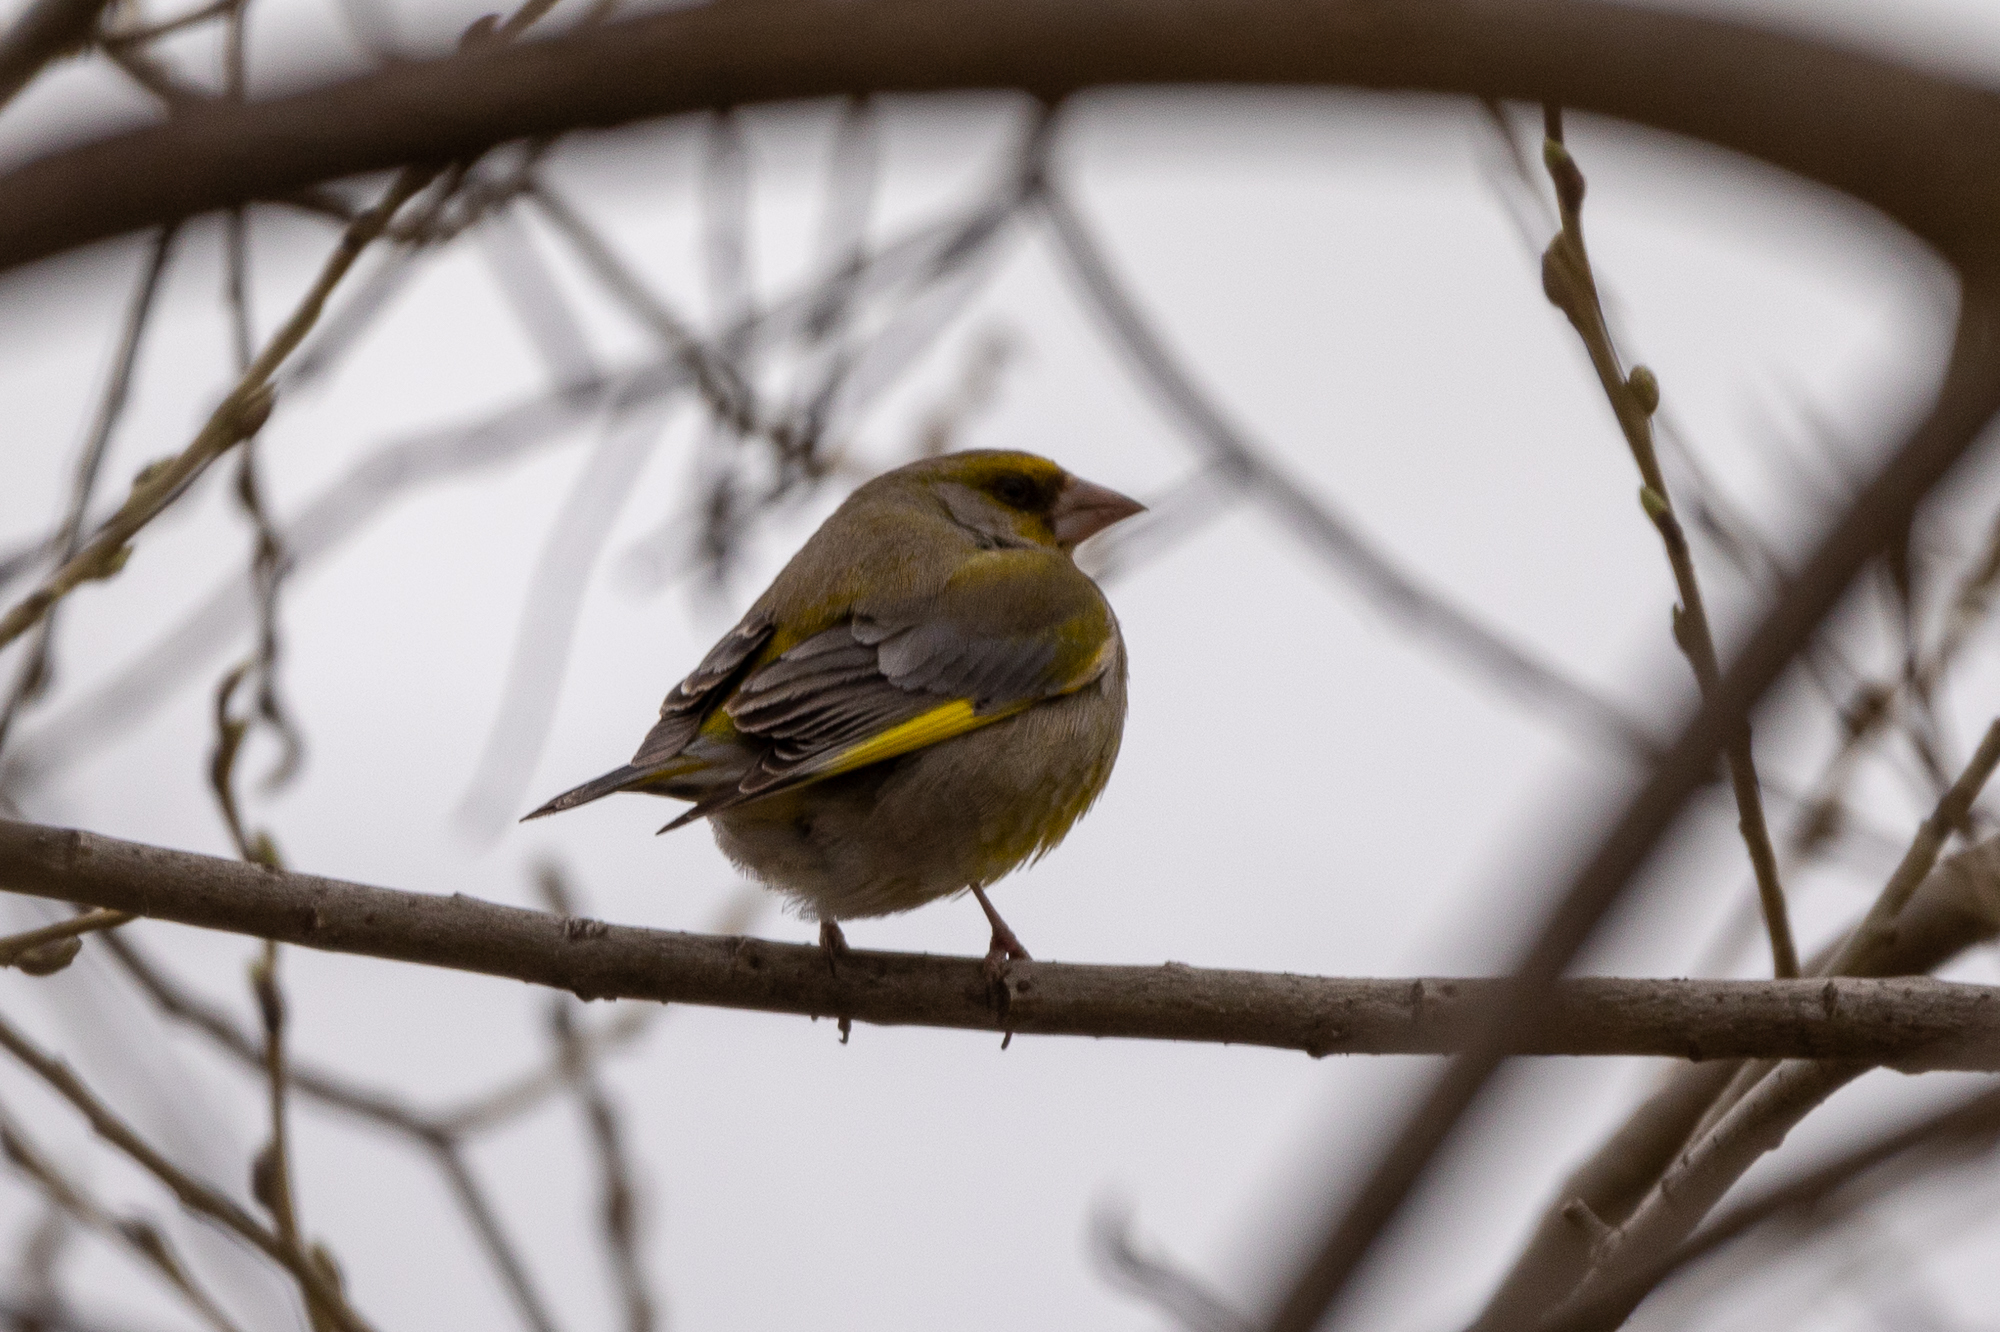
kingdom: Plantae
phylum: Tracheophyta
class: Liliopsida
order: Poales
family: Poaceae
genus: Chloris
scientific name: Chloris chloris
